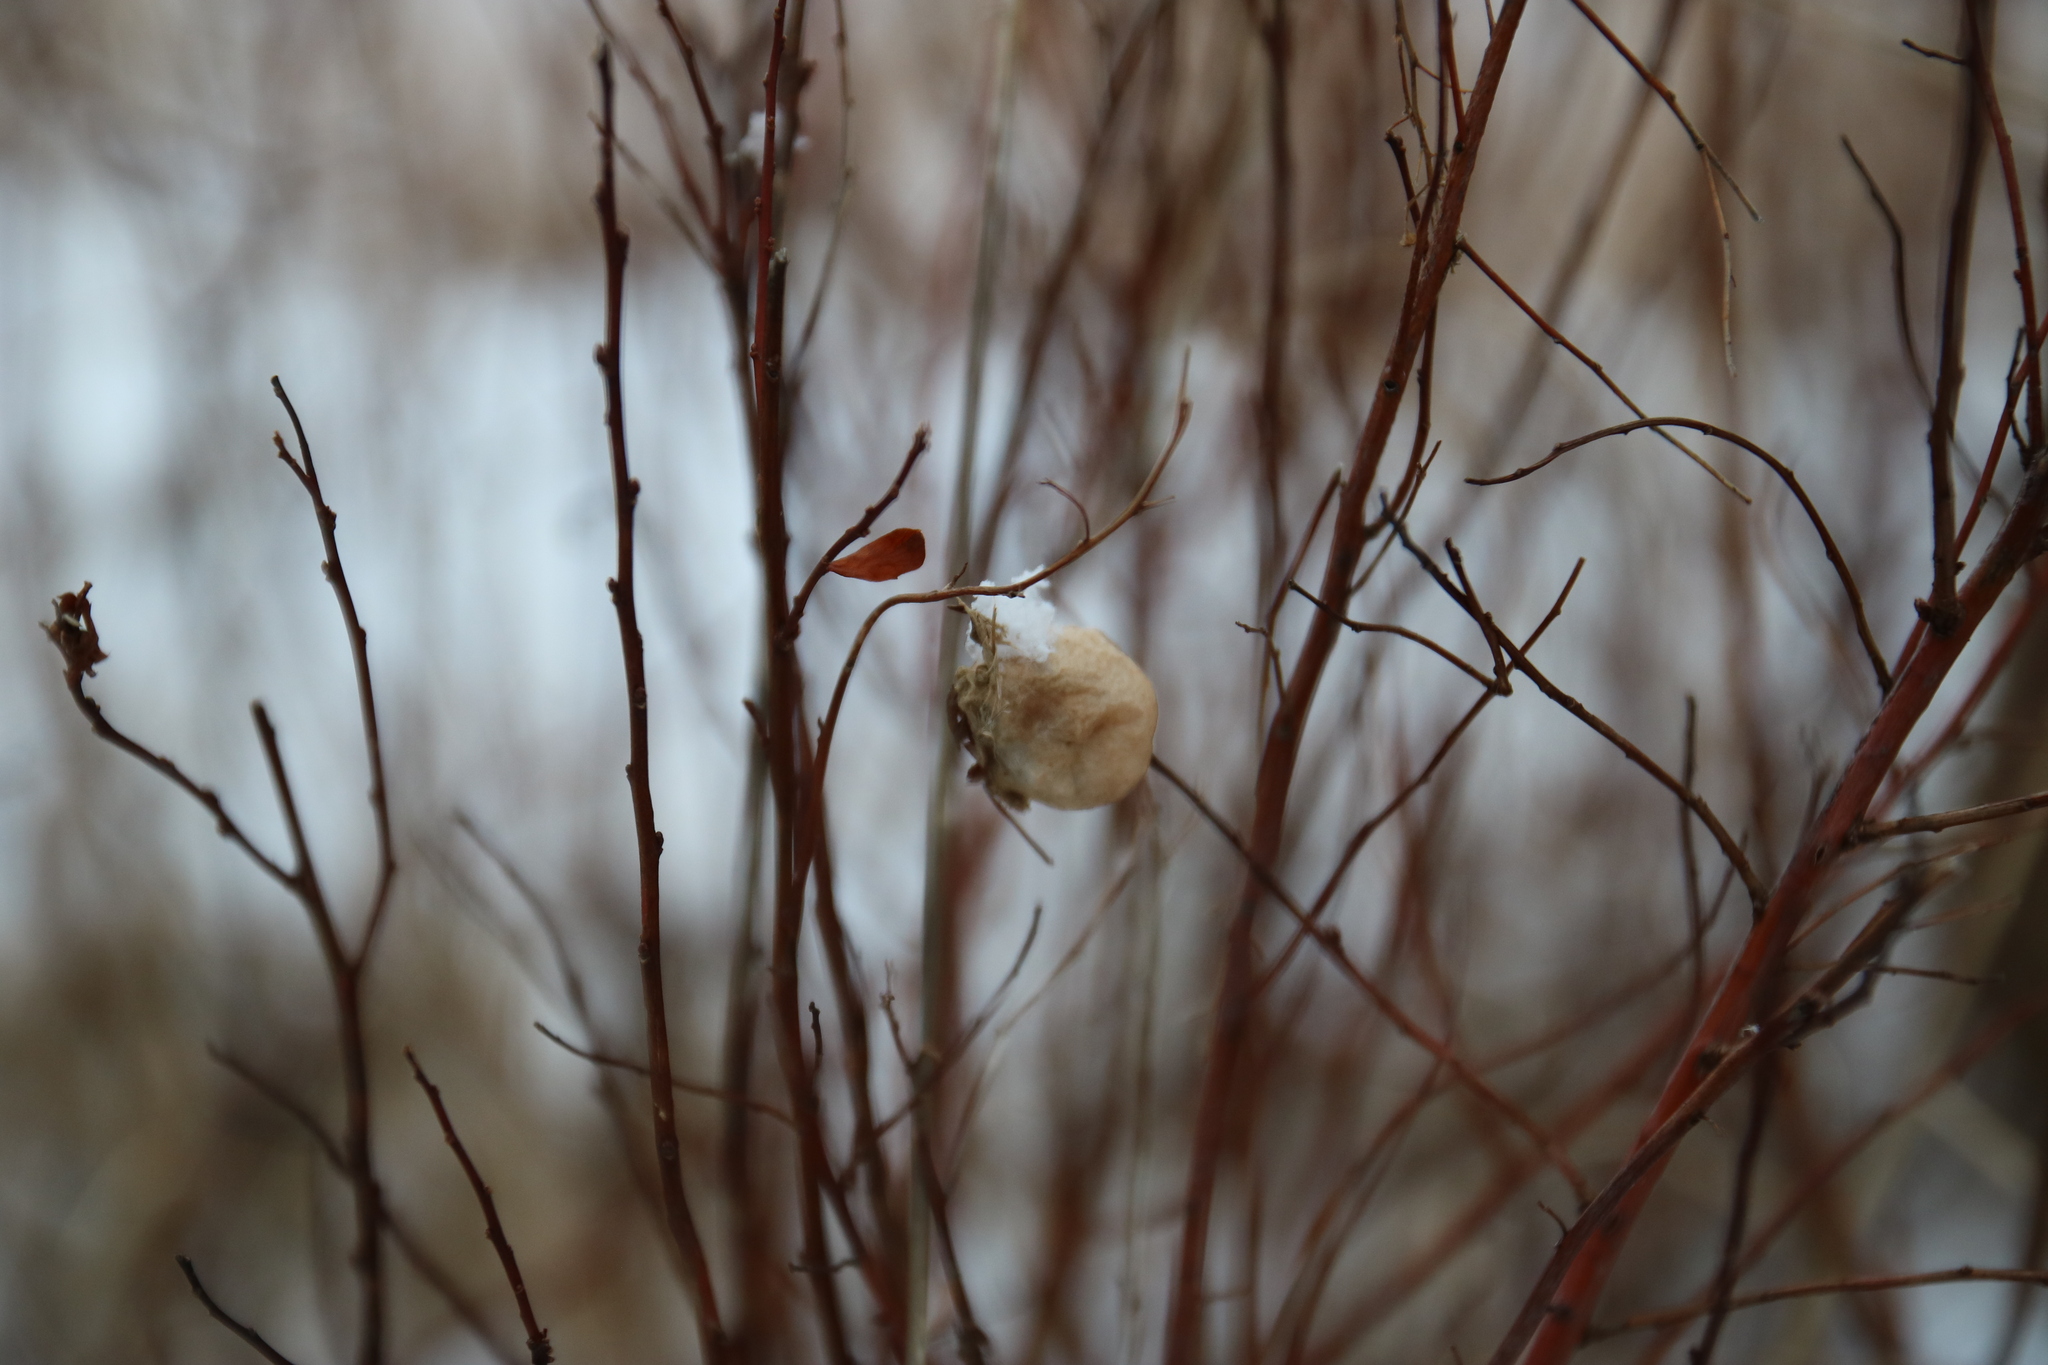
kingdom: Animalia
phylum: Arthropoda
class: Arachnida
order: Araneae
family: Araneidae
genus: Argiope
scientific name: Argiope aurantia
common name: Orb weavers
